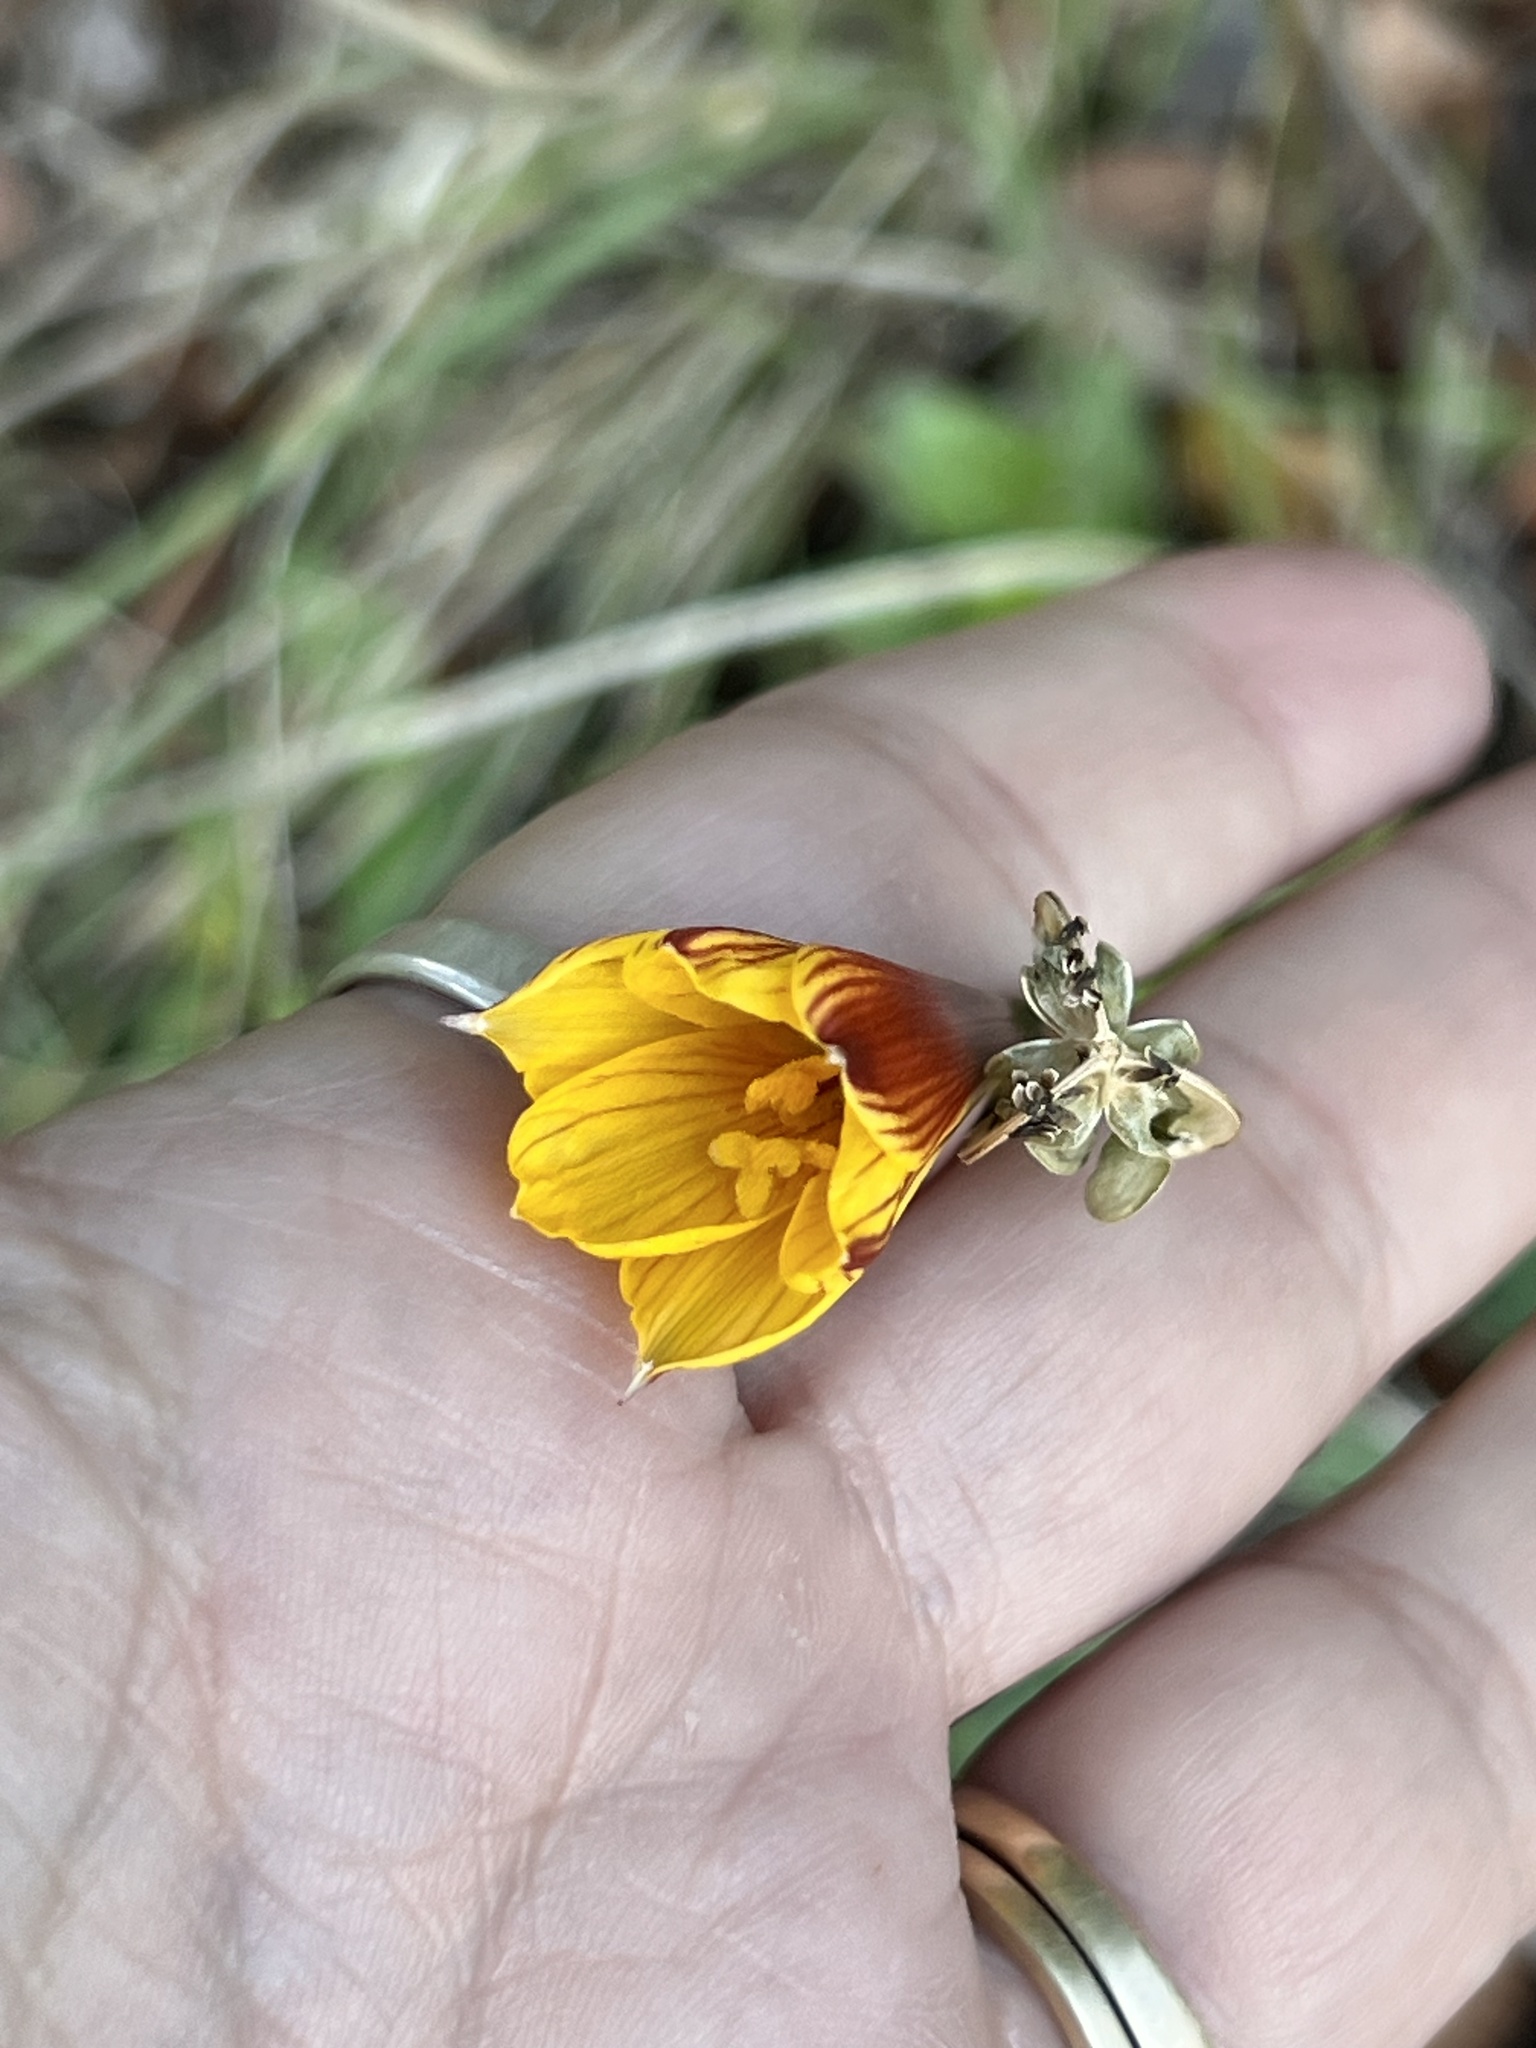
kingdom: Plantae
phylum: Tracheophyta
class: Liliopsida
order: Asparagales
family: Amaryllidaceae
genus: Zephyranthes
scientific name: Zephyranthes tubispatha
